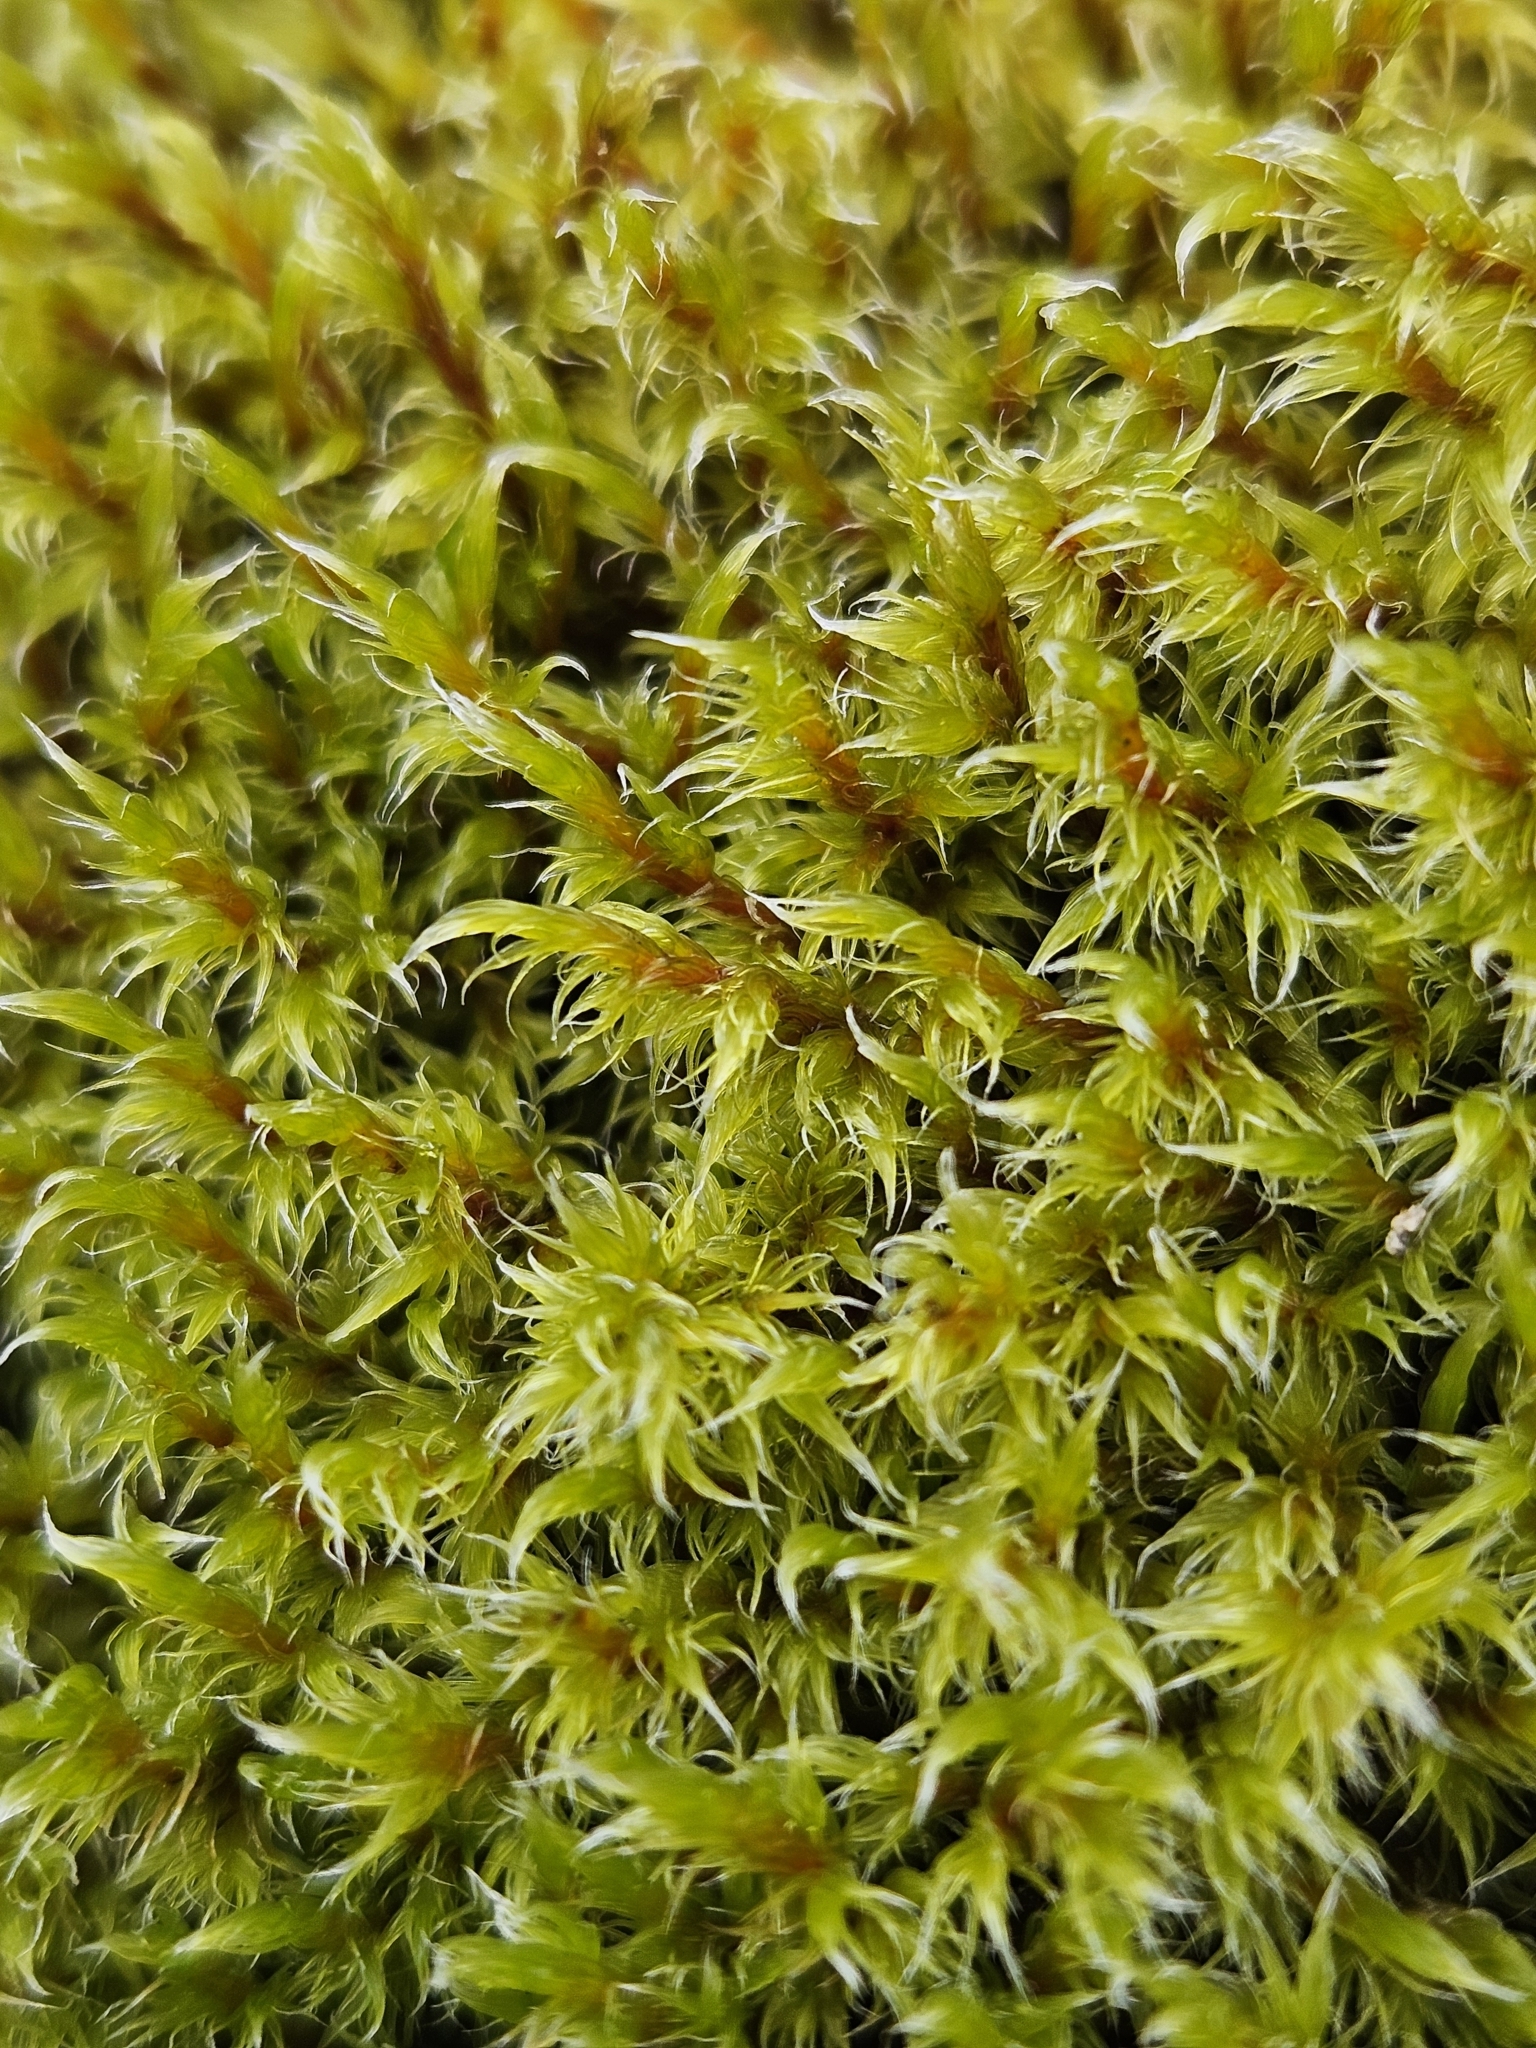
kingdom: Plantae
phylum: Bryophyta
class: Bryopsida
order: Grimmiales
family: Grimmiaceae
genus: Racomitrium
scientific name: Racomitrium lanuginosum
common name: Hoary rock moss
